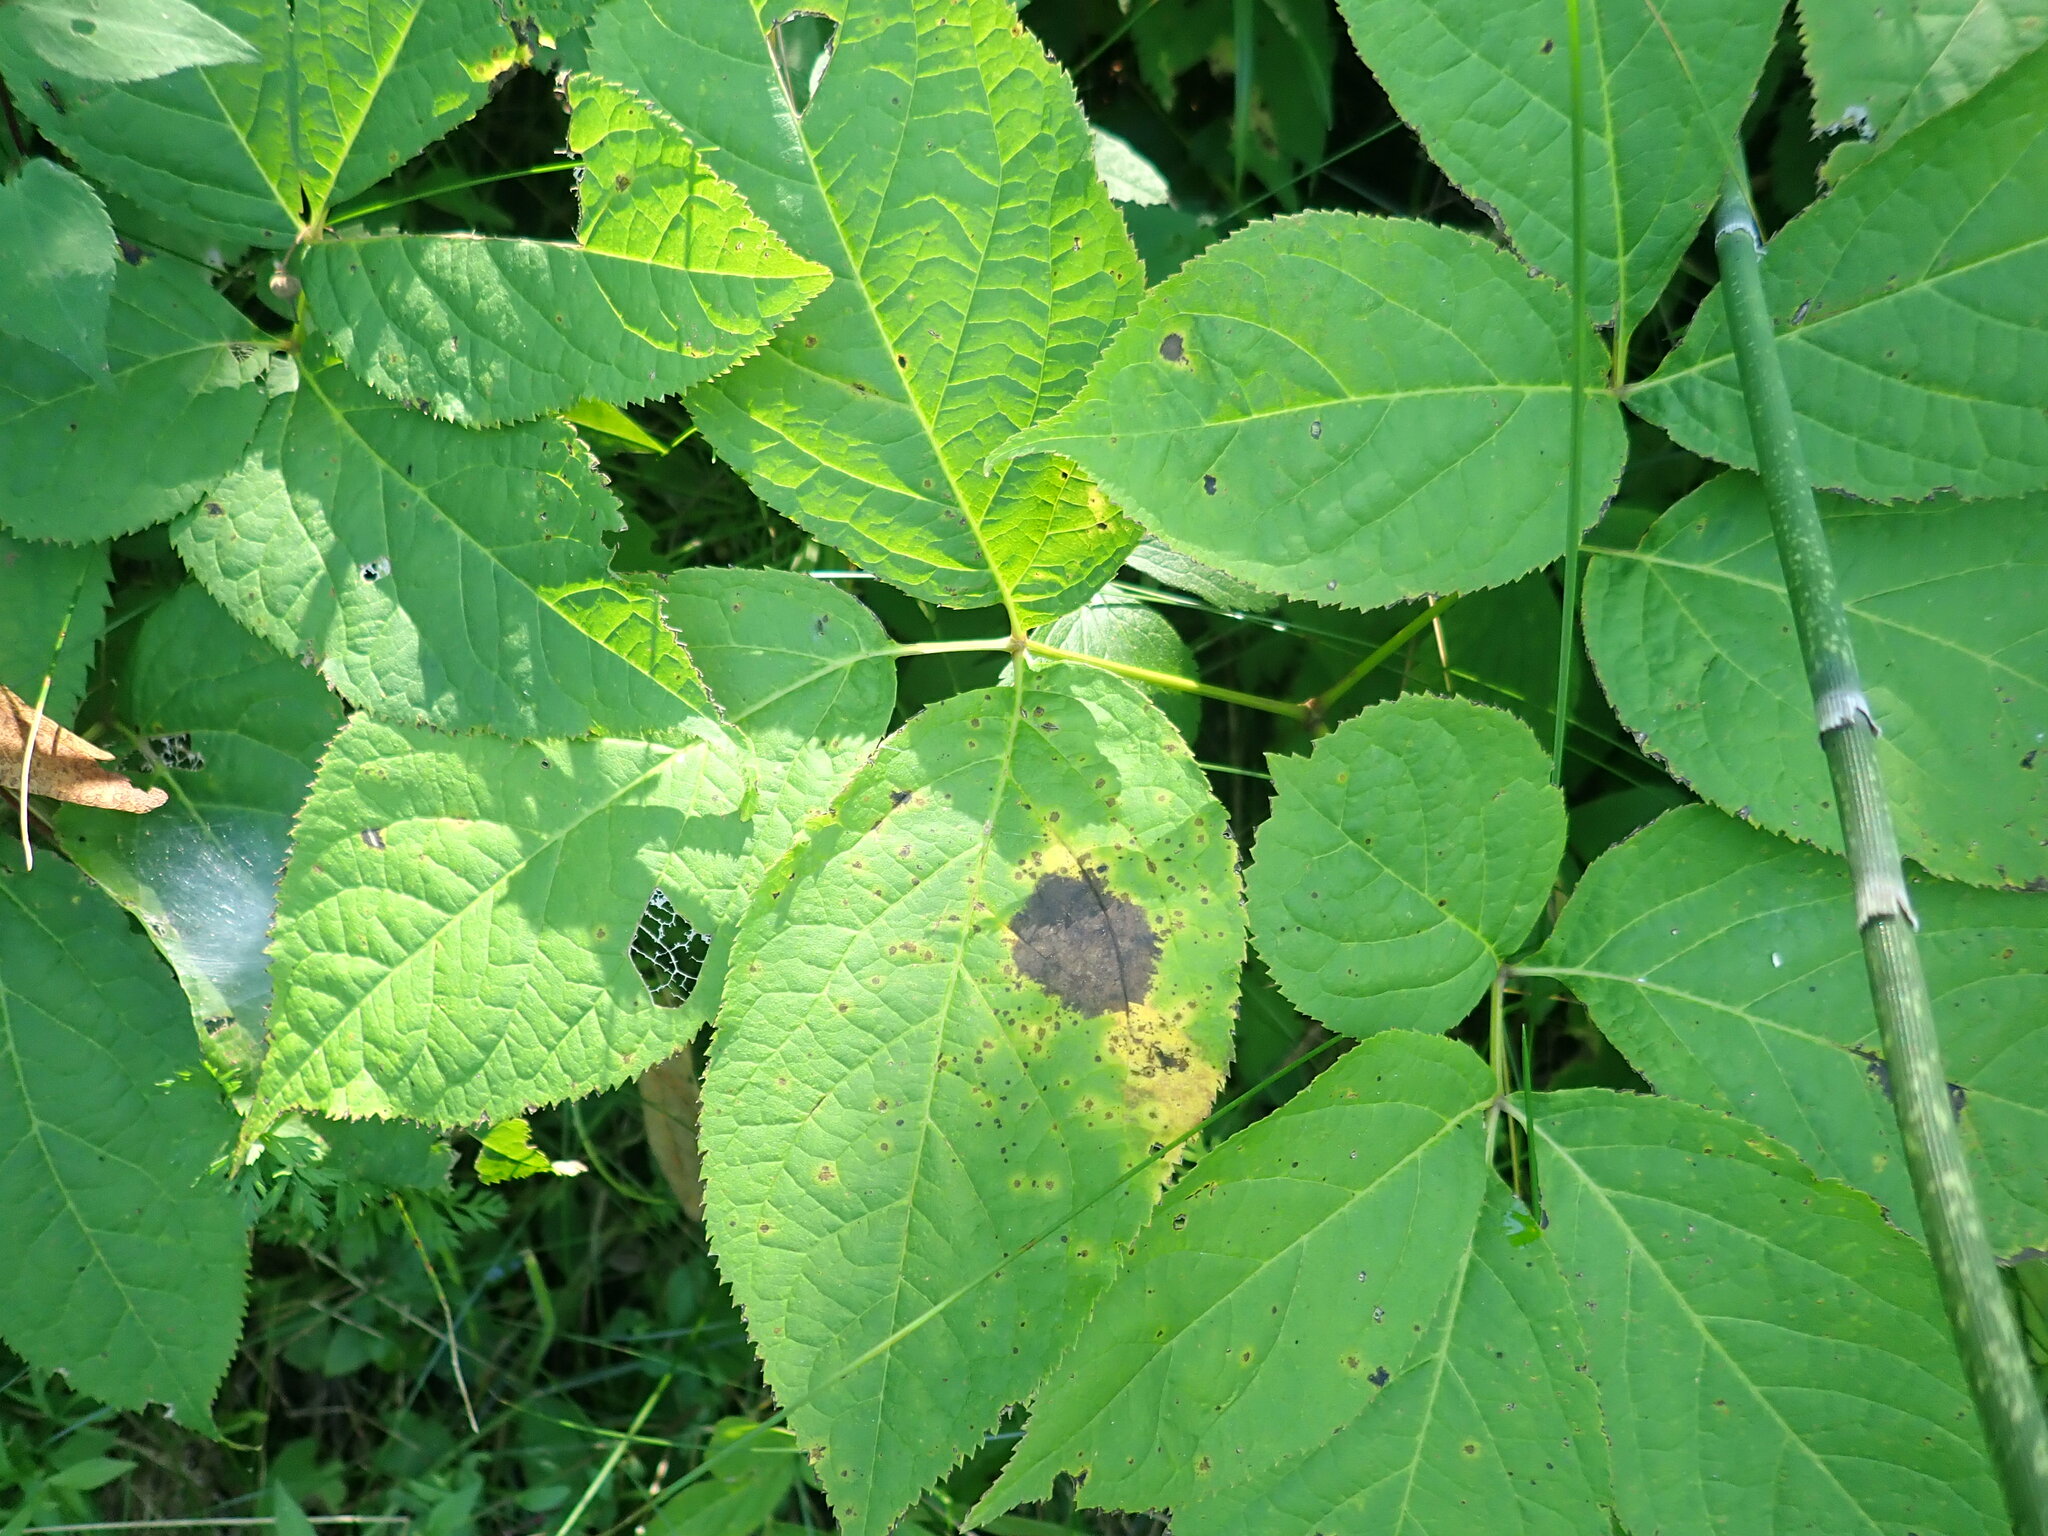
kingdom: Plantae
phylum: Tracheophyta
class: Magnoliopsida
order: Apiales
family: Araliaceae
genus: Aralia
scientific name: Aralia nudicaulis
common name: Wild sarsaparilla
